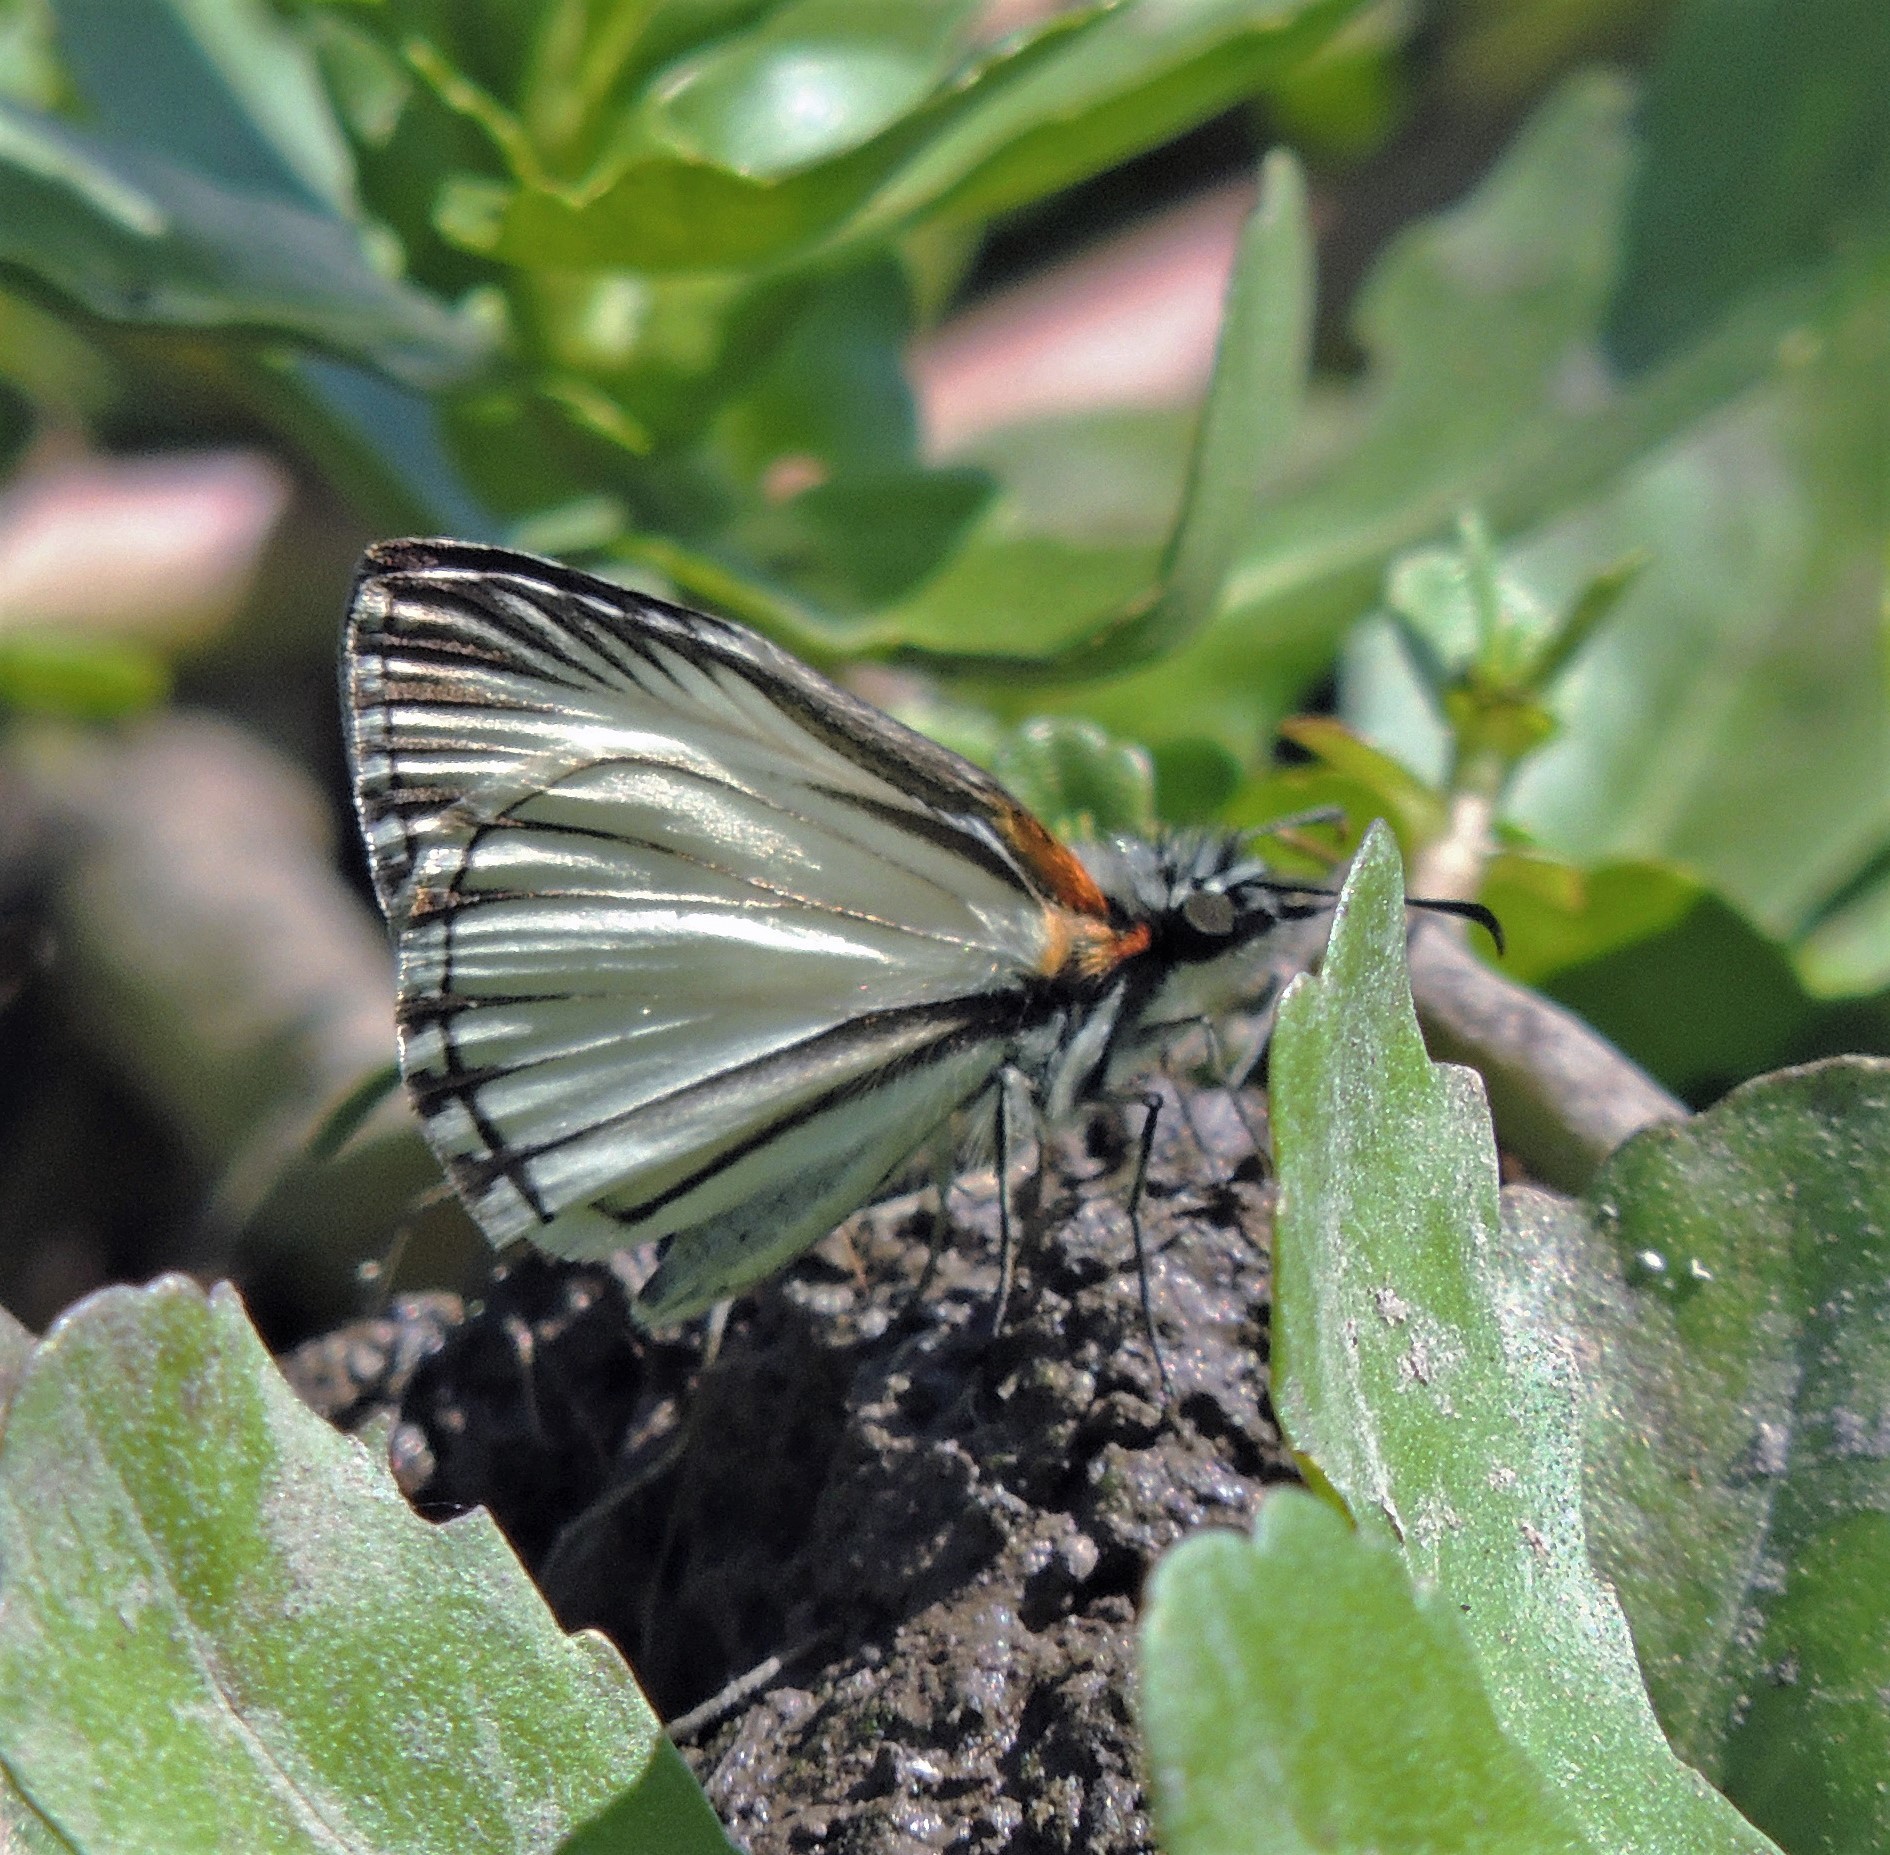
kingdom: Animalia
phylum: Arthropoda
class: Insecta
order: Lepidoptera
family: Hesperiidae
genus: Heliopetes
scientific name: Heliopetes arsalte
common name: Veined white-skipper
